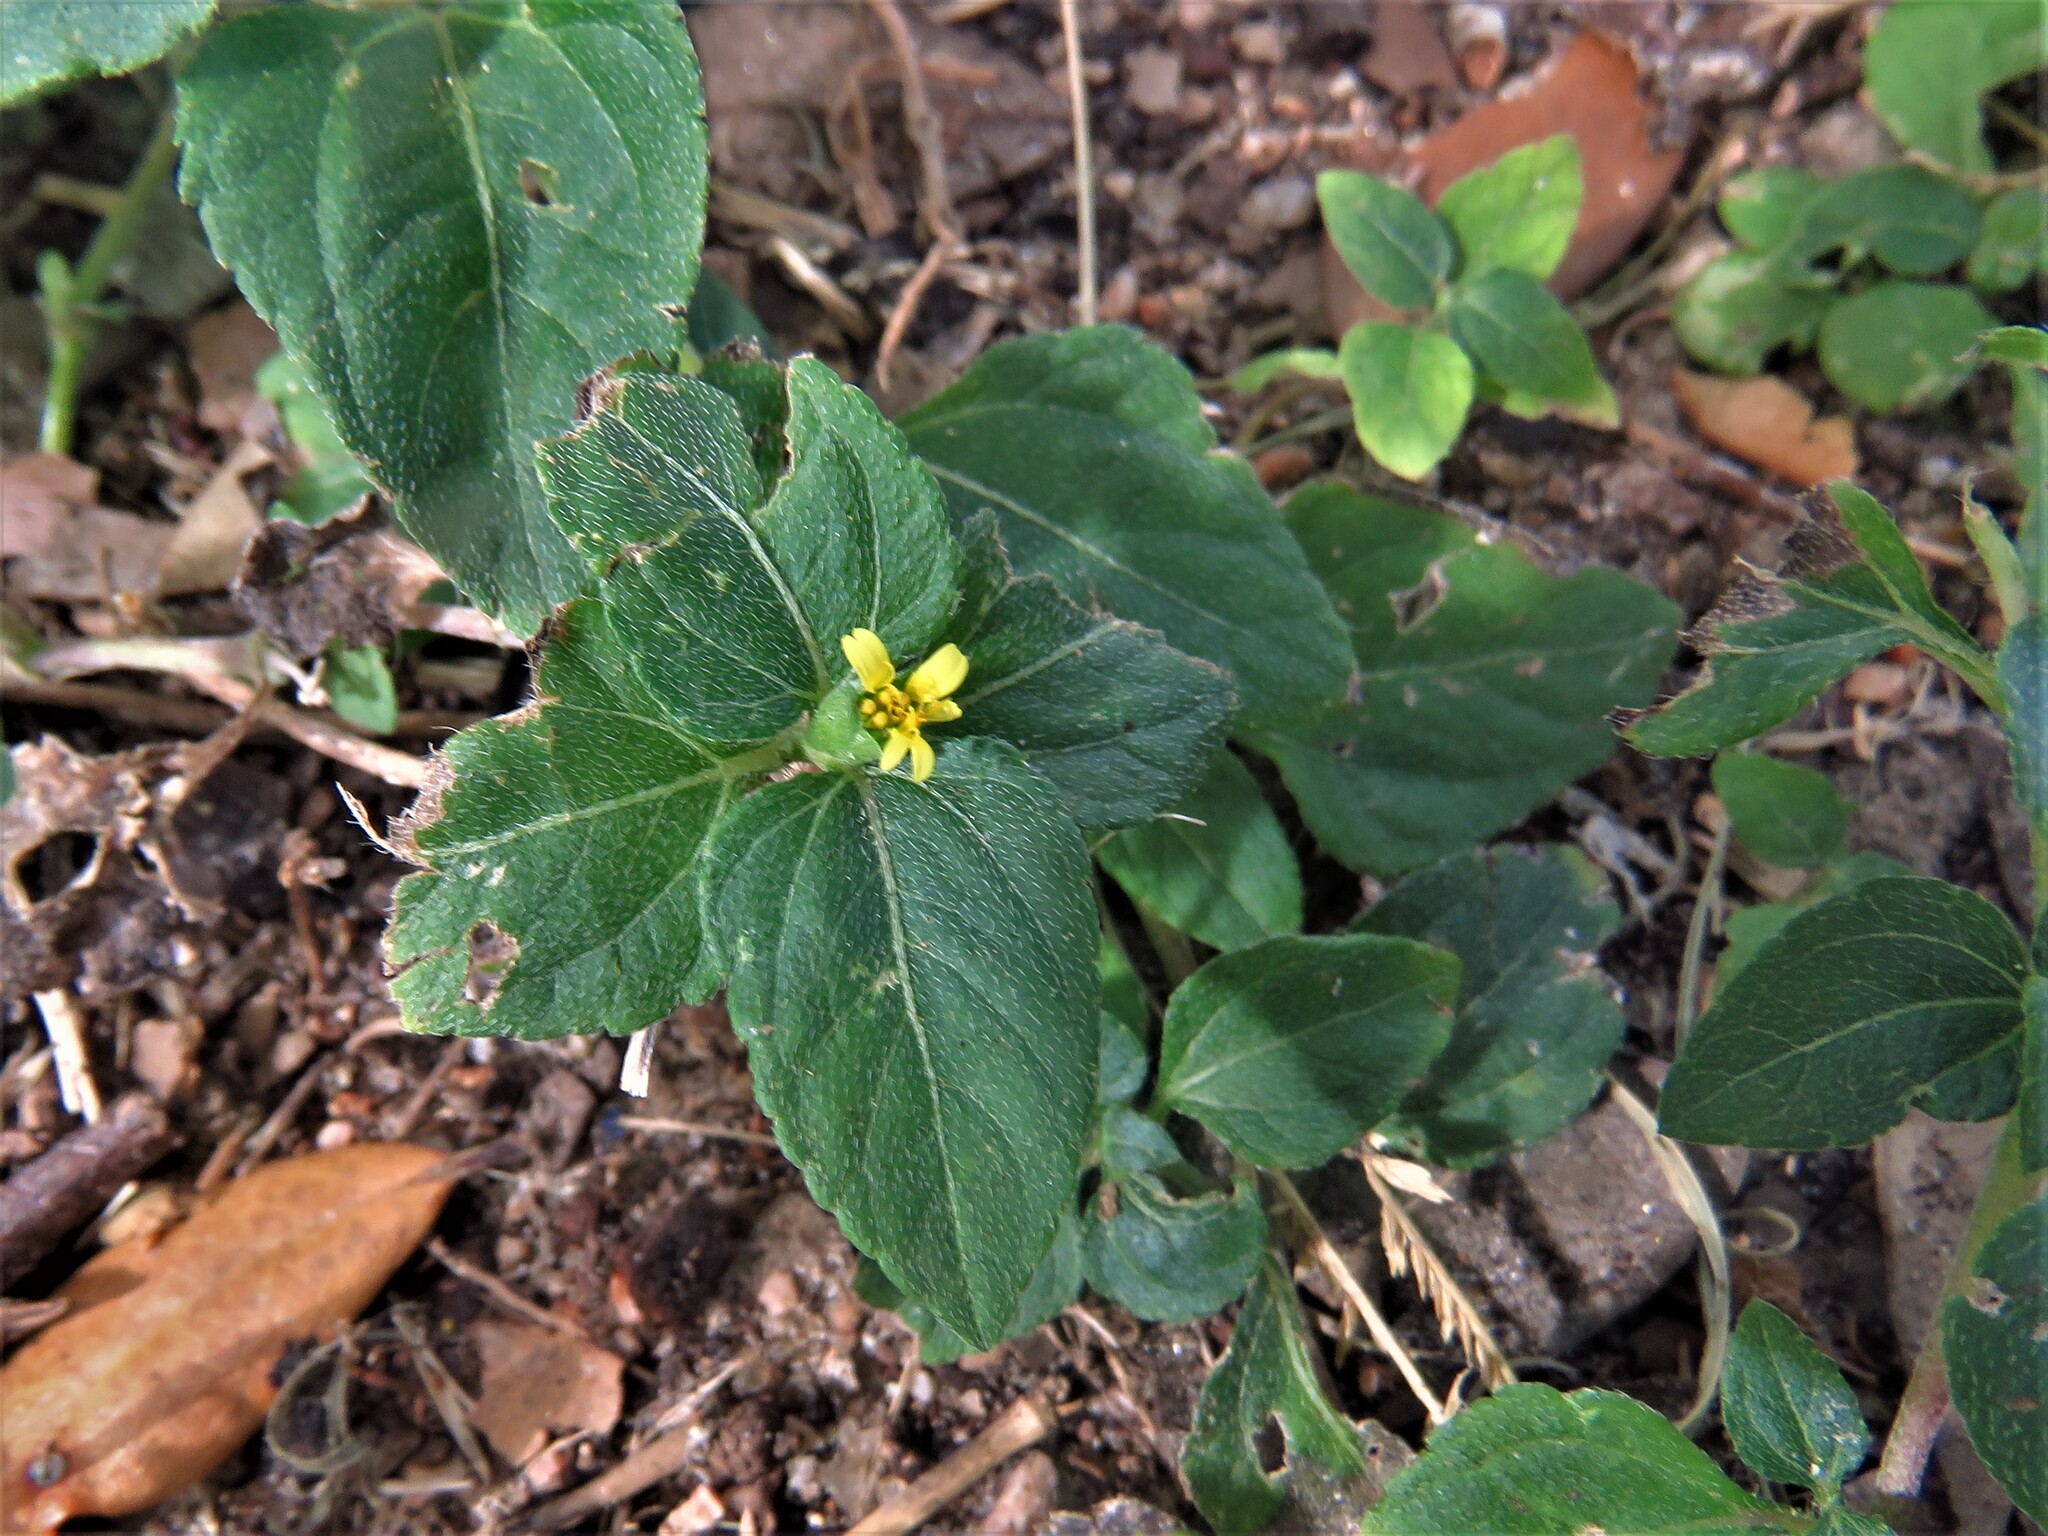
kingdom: Plantae
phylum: Tracheophyta
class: Magnoliopsida
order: Asterales
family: Asteraceae
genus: Calyptocarpus
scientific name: Calyptocarpus vialis
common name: Straggler daisy
